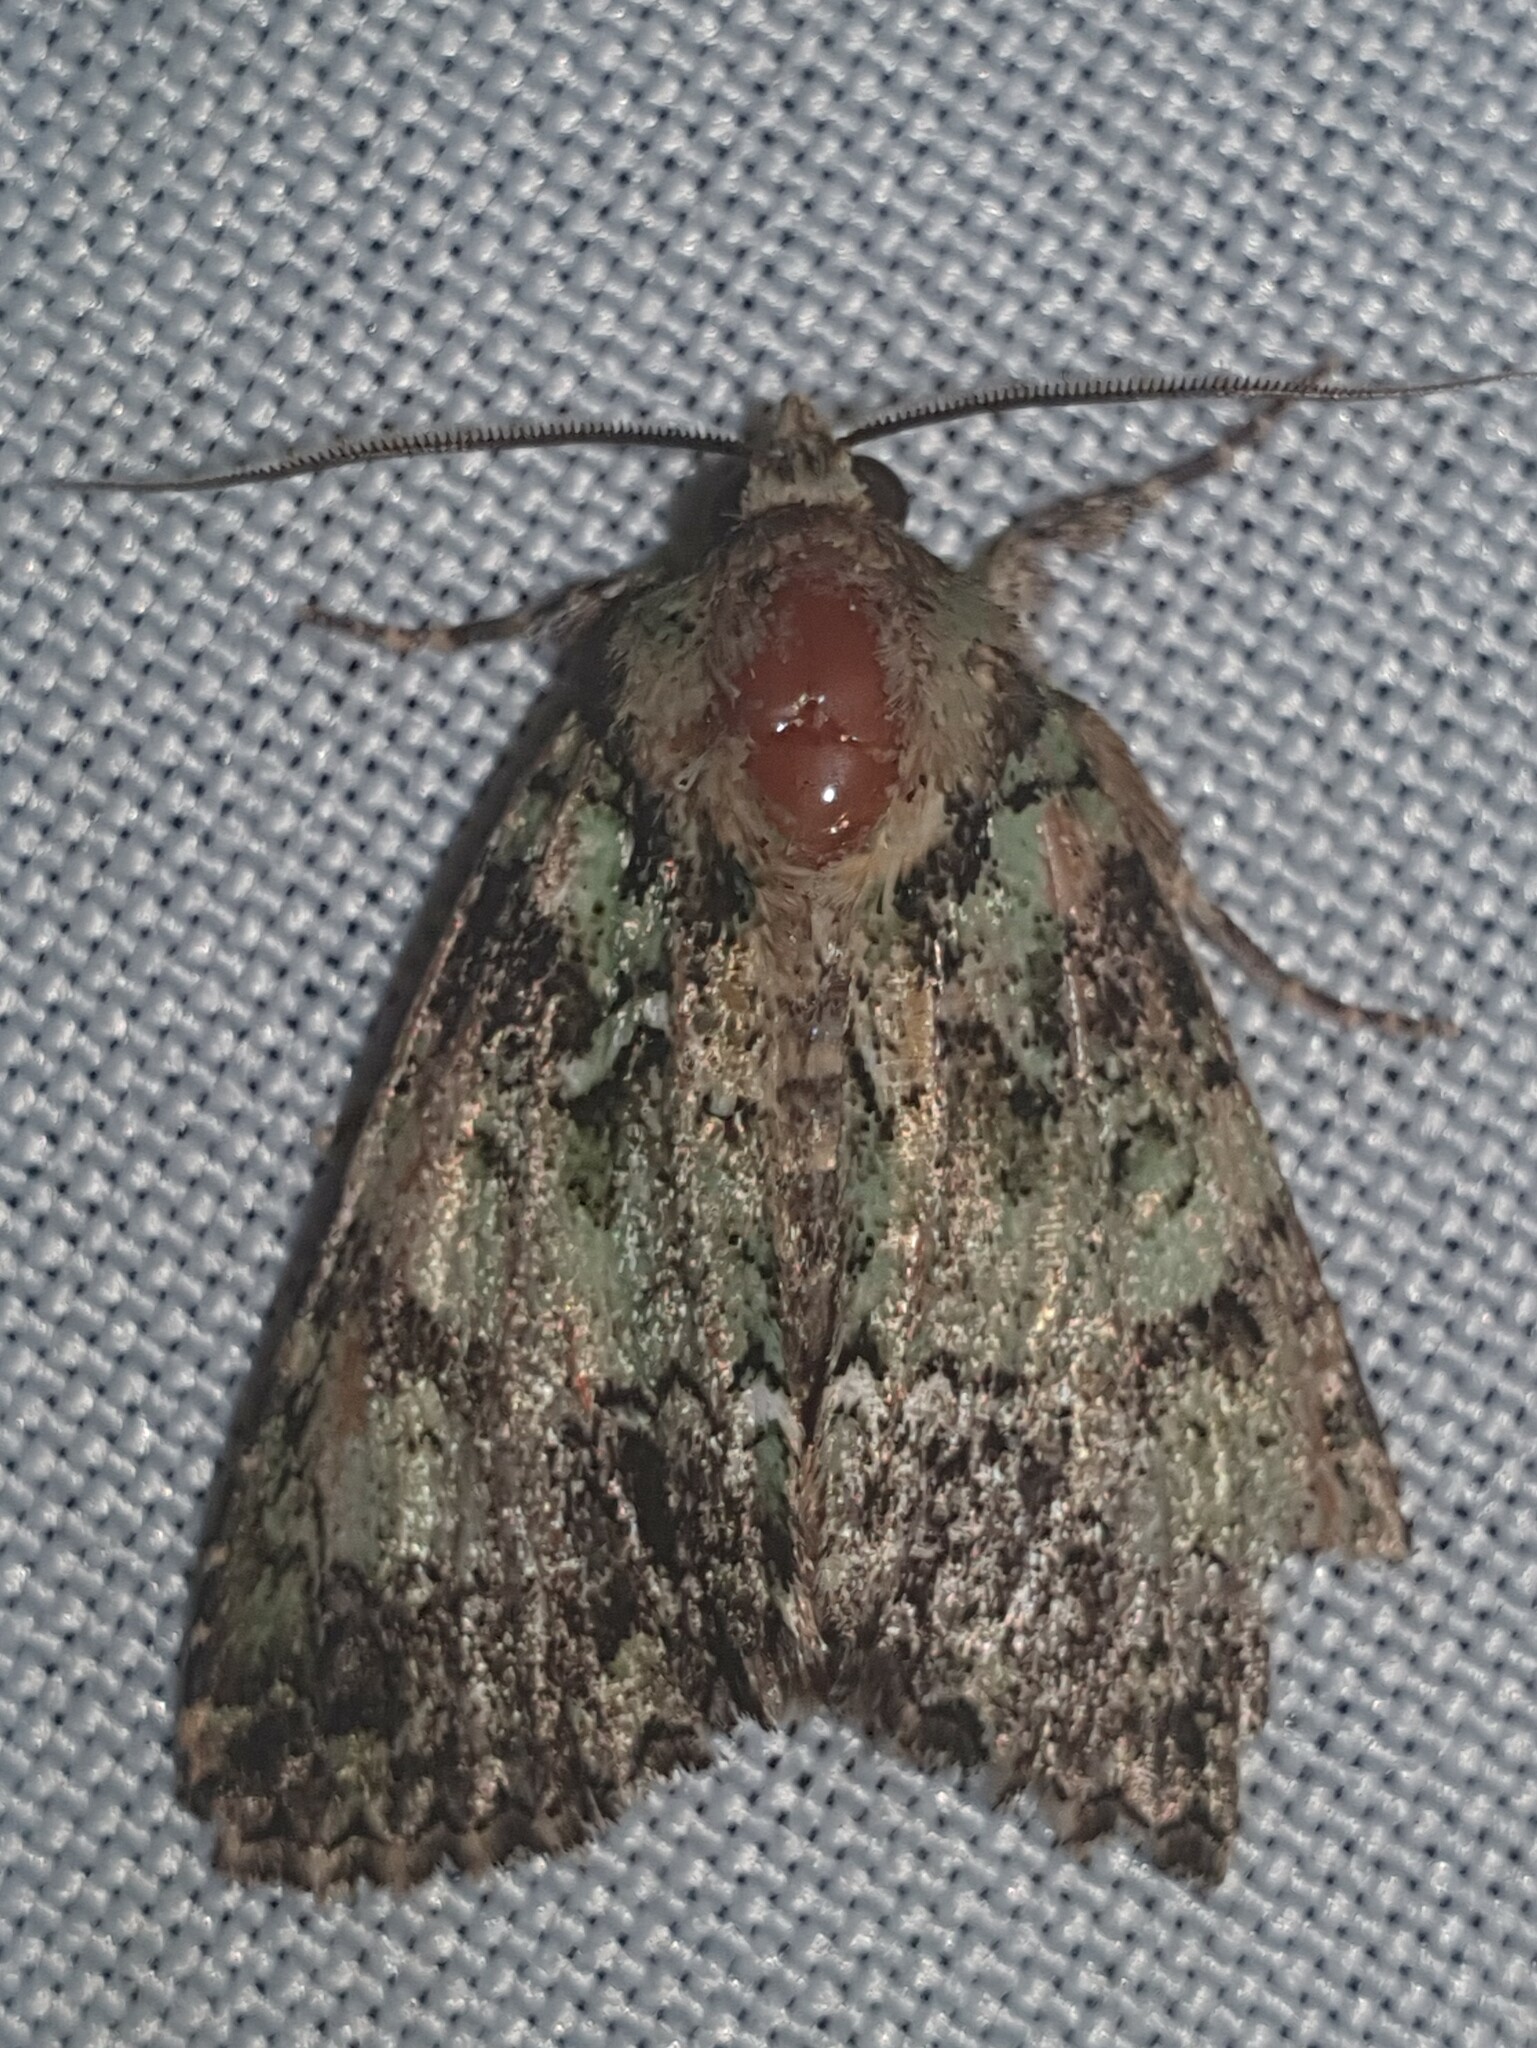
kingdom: Animalia
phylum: Arthropoda
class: Insecta
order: Lepidoptera
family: Noctuidae
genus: Polyphaenis
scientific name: Polyphaenis sericata
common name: Guernsey underwing
